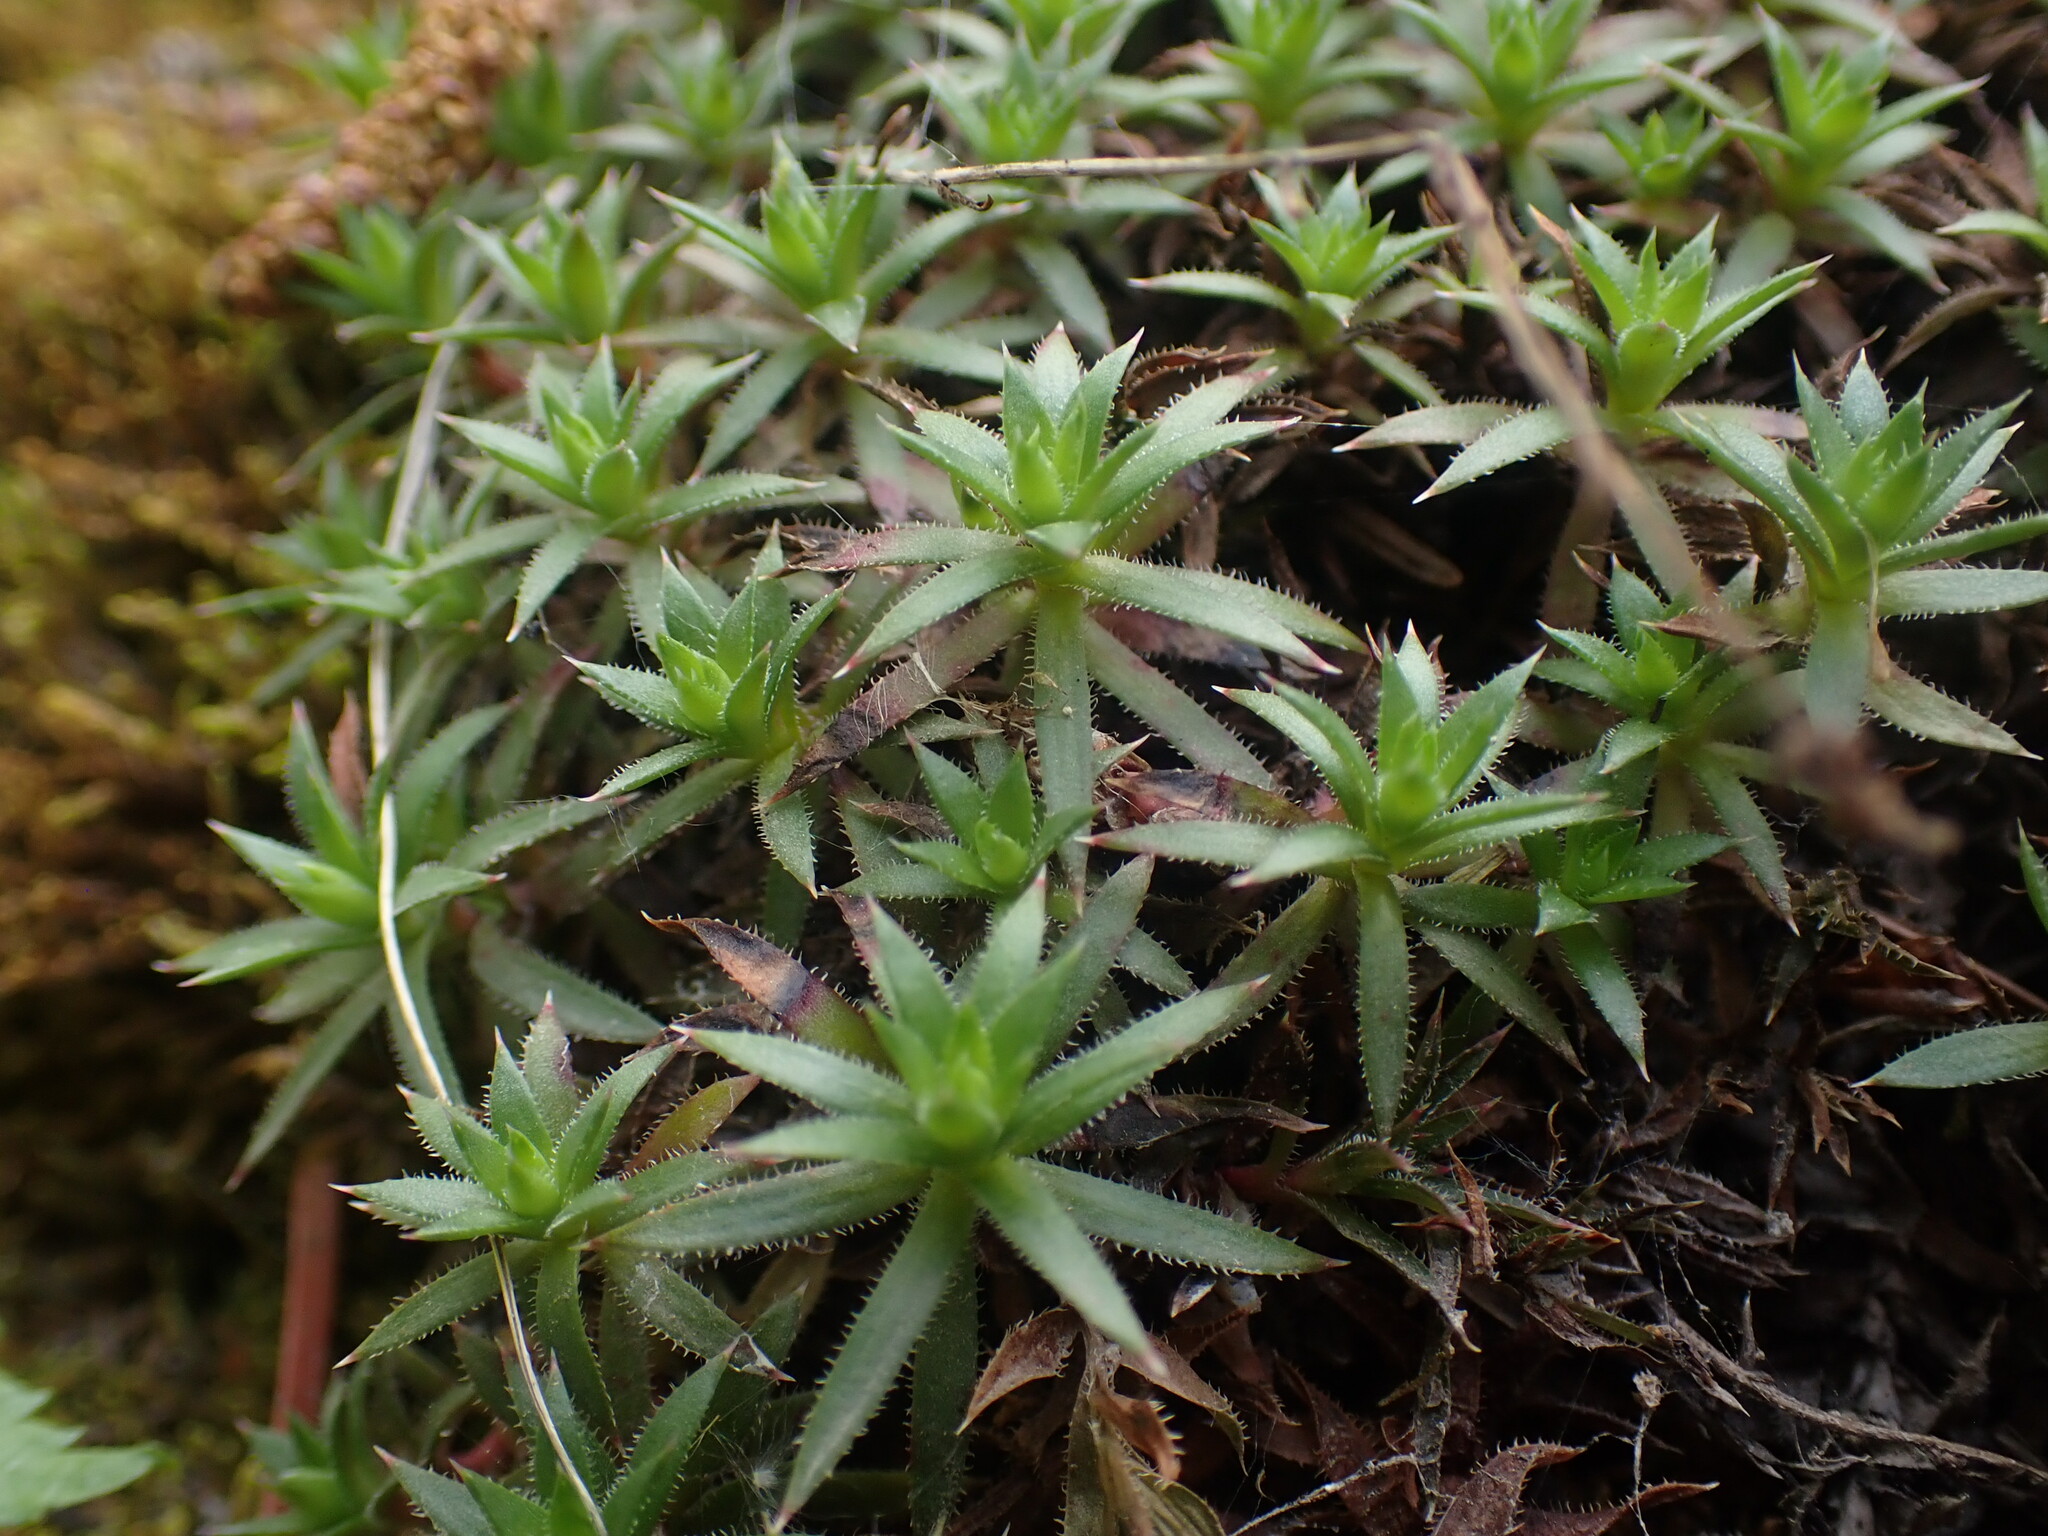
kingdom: Plantae
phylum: Tracheophyta
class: Magnoliopsida
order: Saxifragales
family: Saxifragaceae
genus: Saxifraga
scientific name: Saxifraga bronchialis
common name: Matted saxifrage
